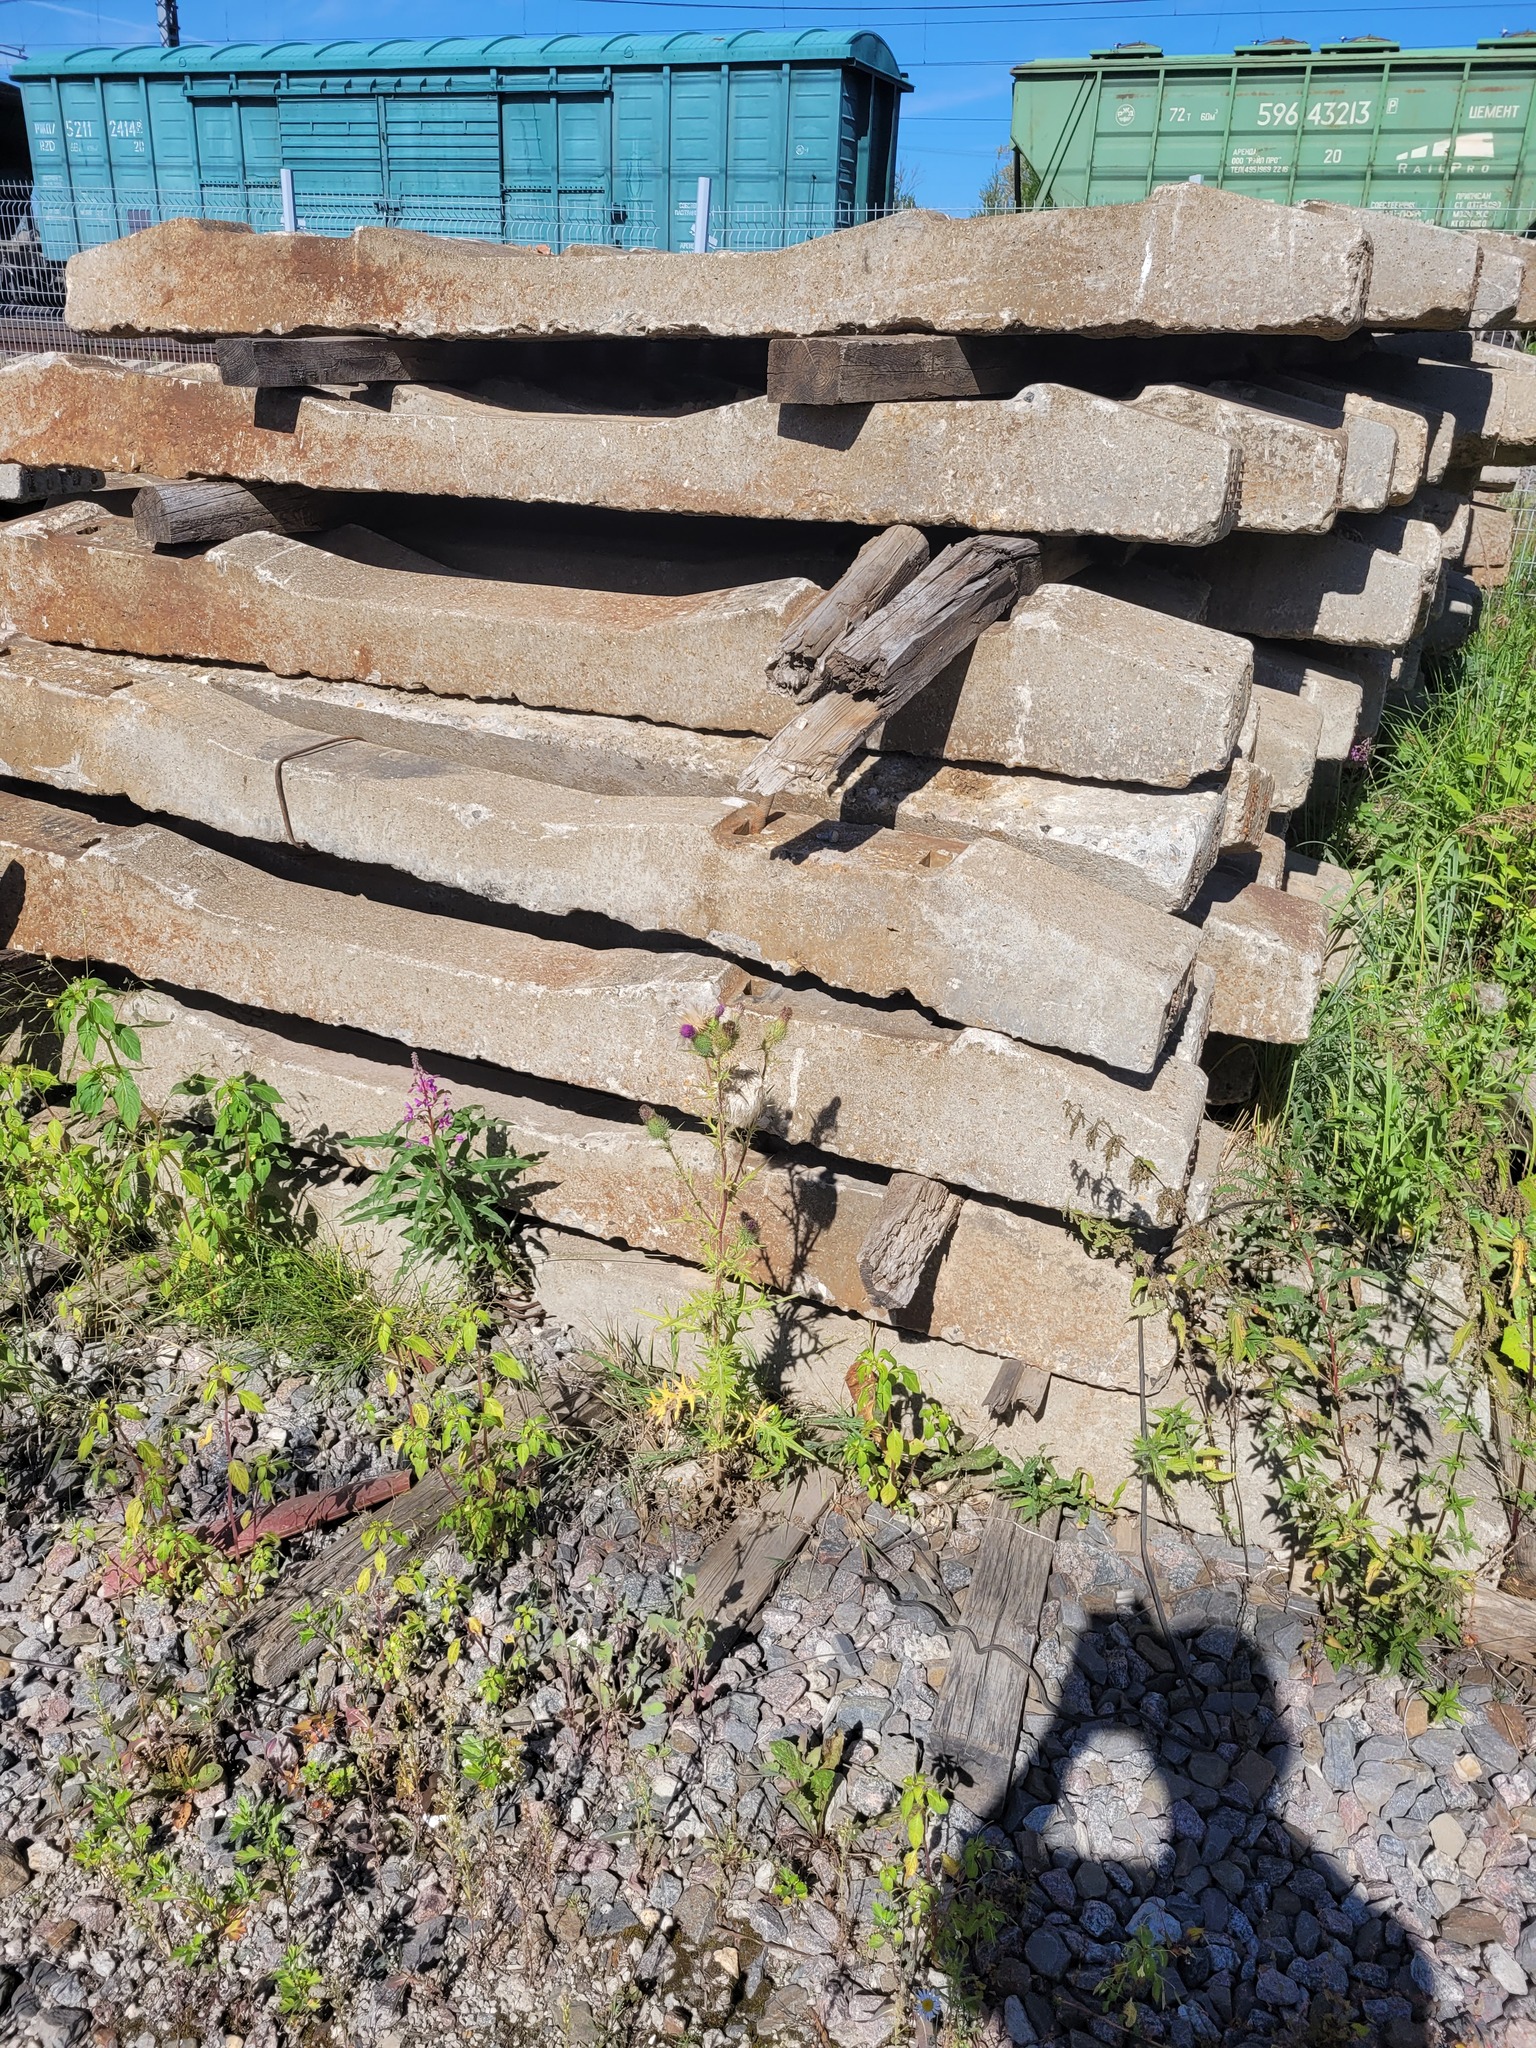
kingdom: Plantae
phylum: Tracheophyta
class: Magnoliopsida
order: Asterales
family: Asteraceae
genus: Cirsium
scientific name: Cirsium vulgare
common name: Bull thistle
